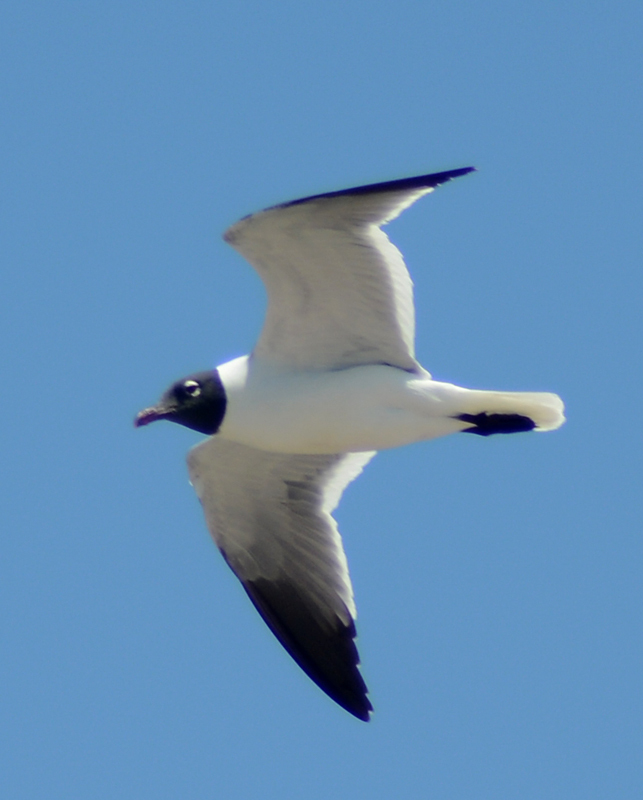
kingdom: Animalia
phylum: Chordata
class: Aves
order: Charadriiformes
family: Laridae
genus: Leucophaeus
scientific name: Leucophaeus atricilla
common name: Laughing gull
